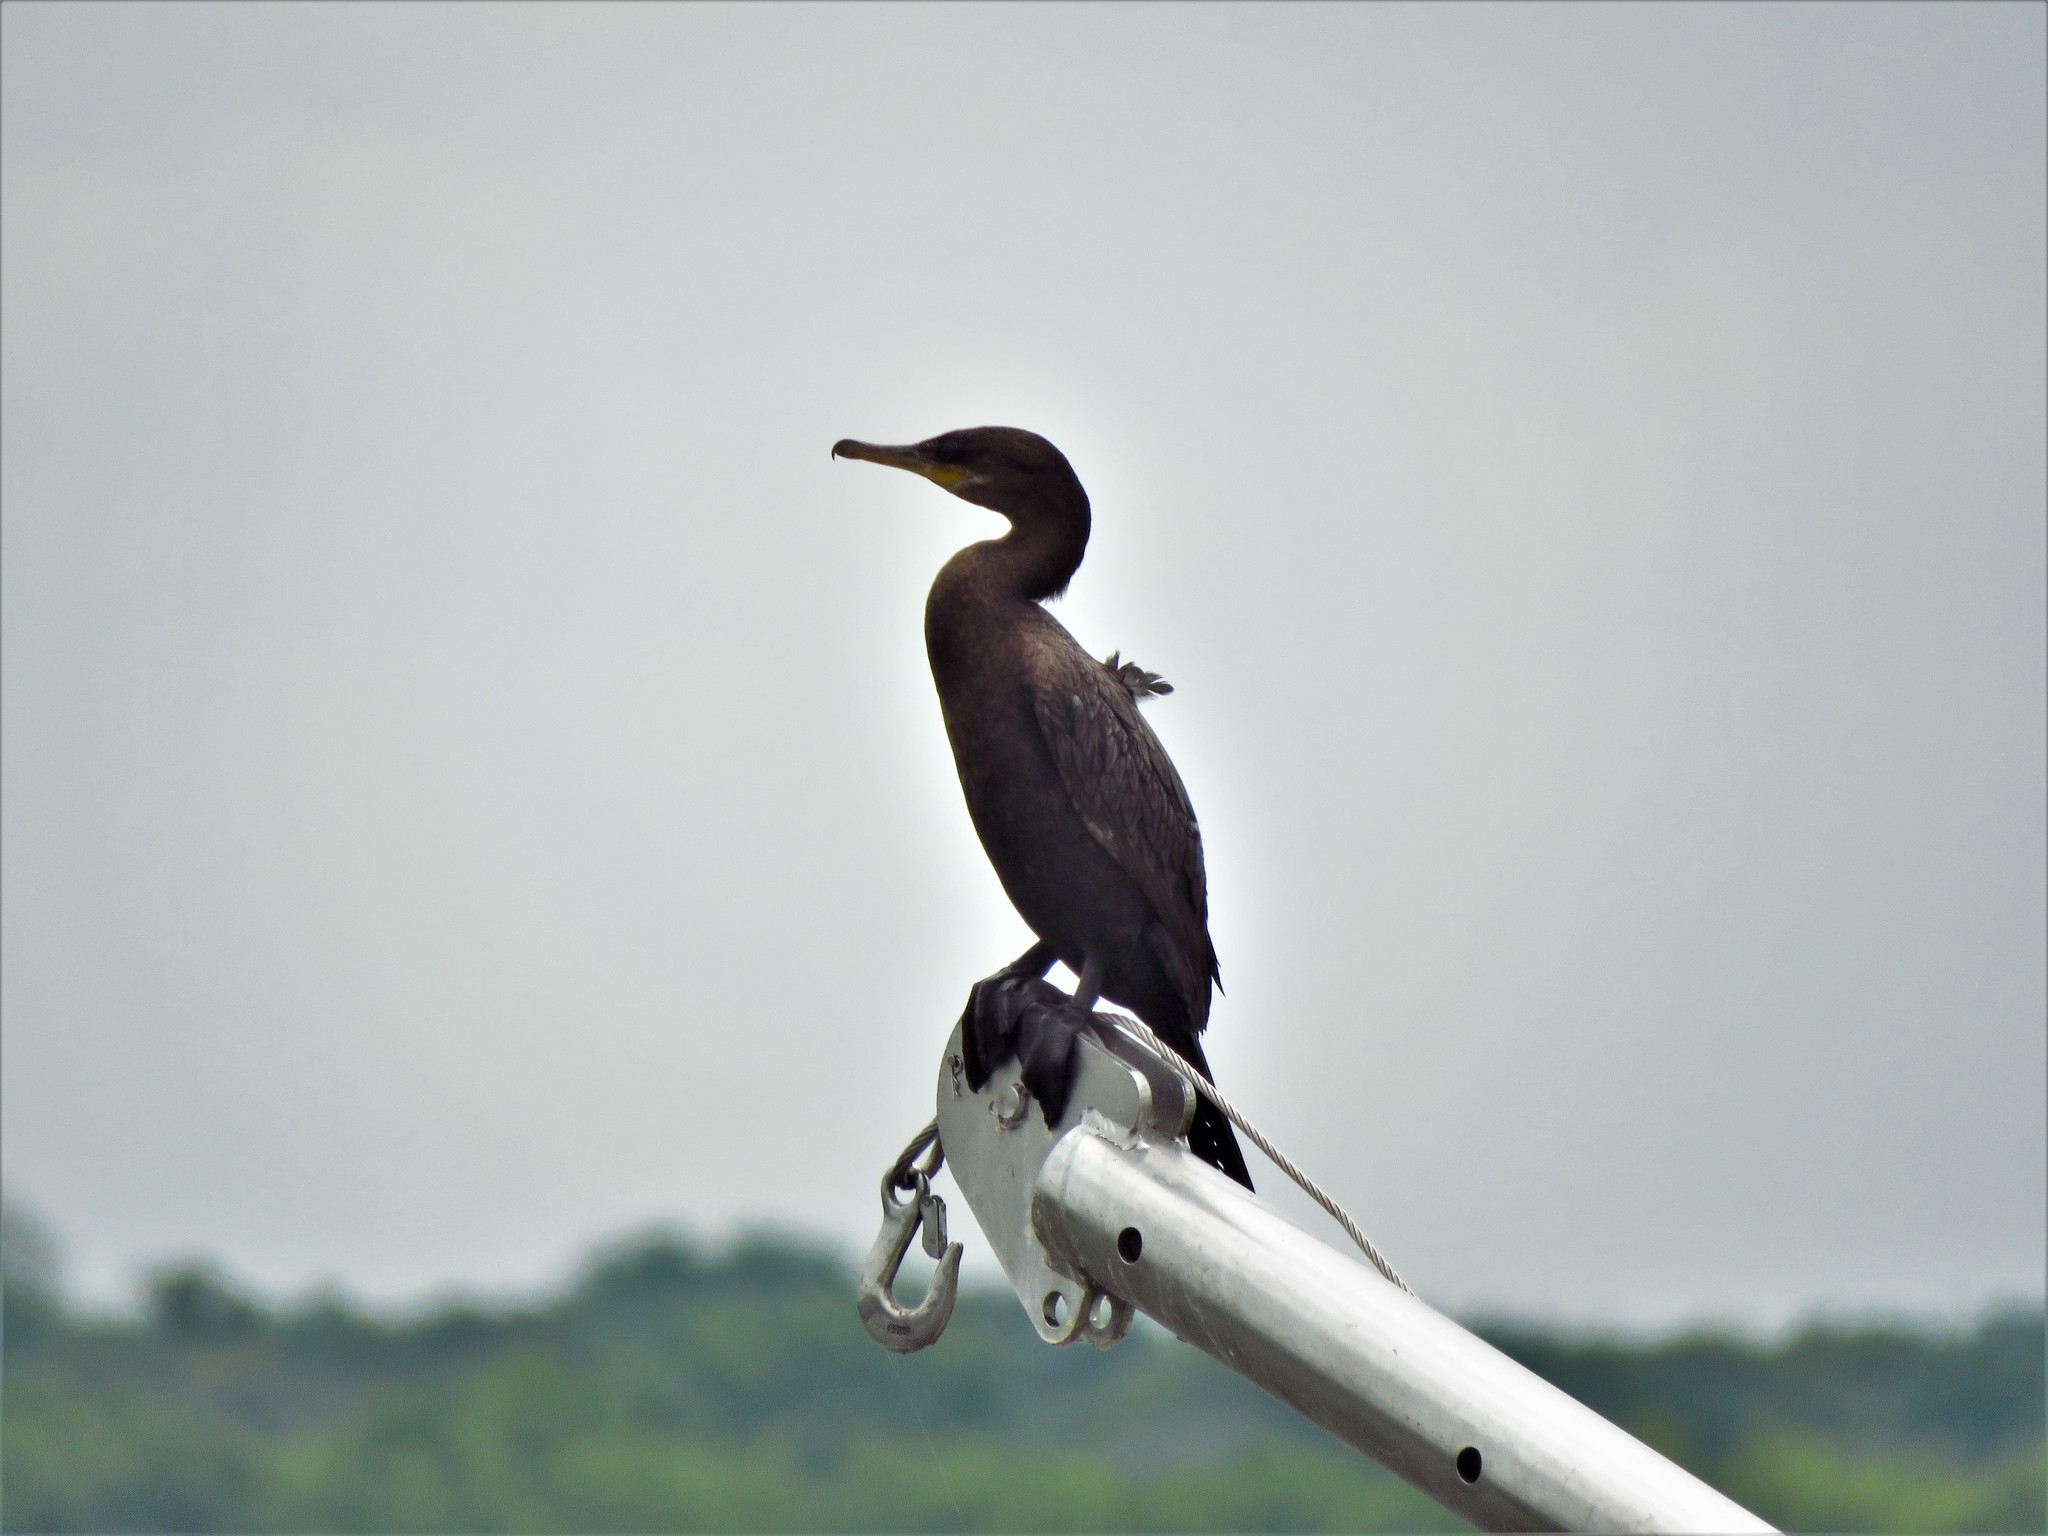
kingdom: Animalia
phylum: Chordata
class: Aves
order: Suliformes
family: Phalacrocoracidae
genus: Phalacrocorax
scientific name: Phalacrocorax brasilianus
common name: Neotropic cormorant
